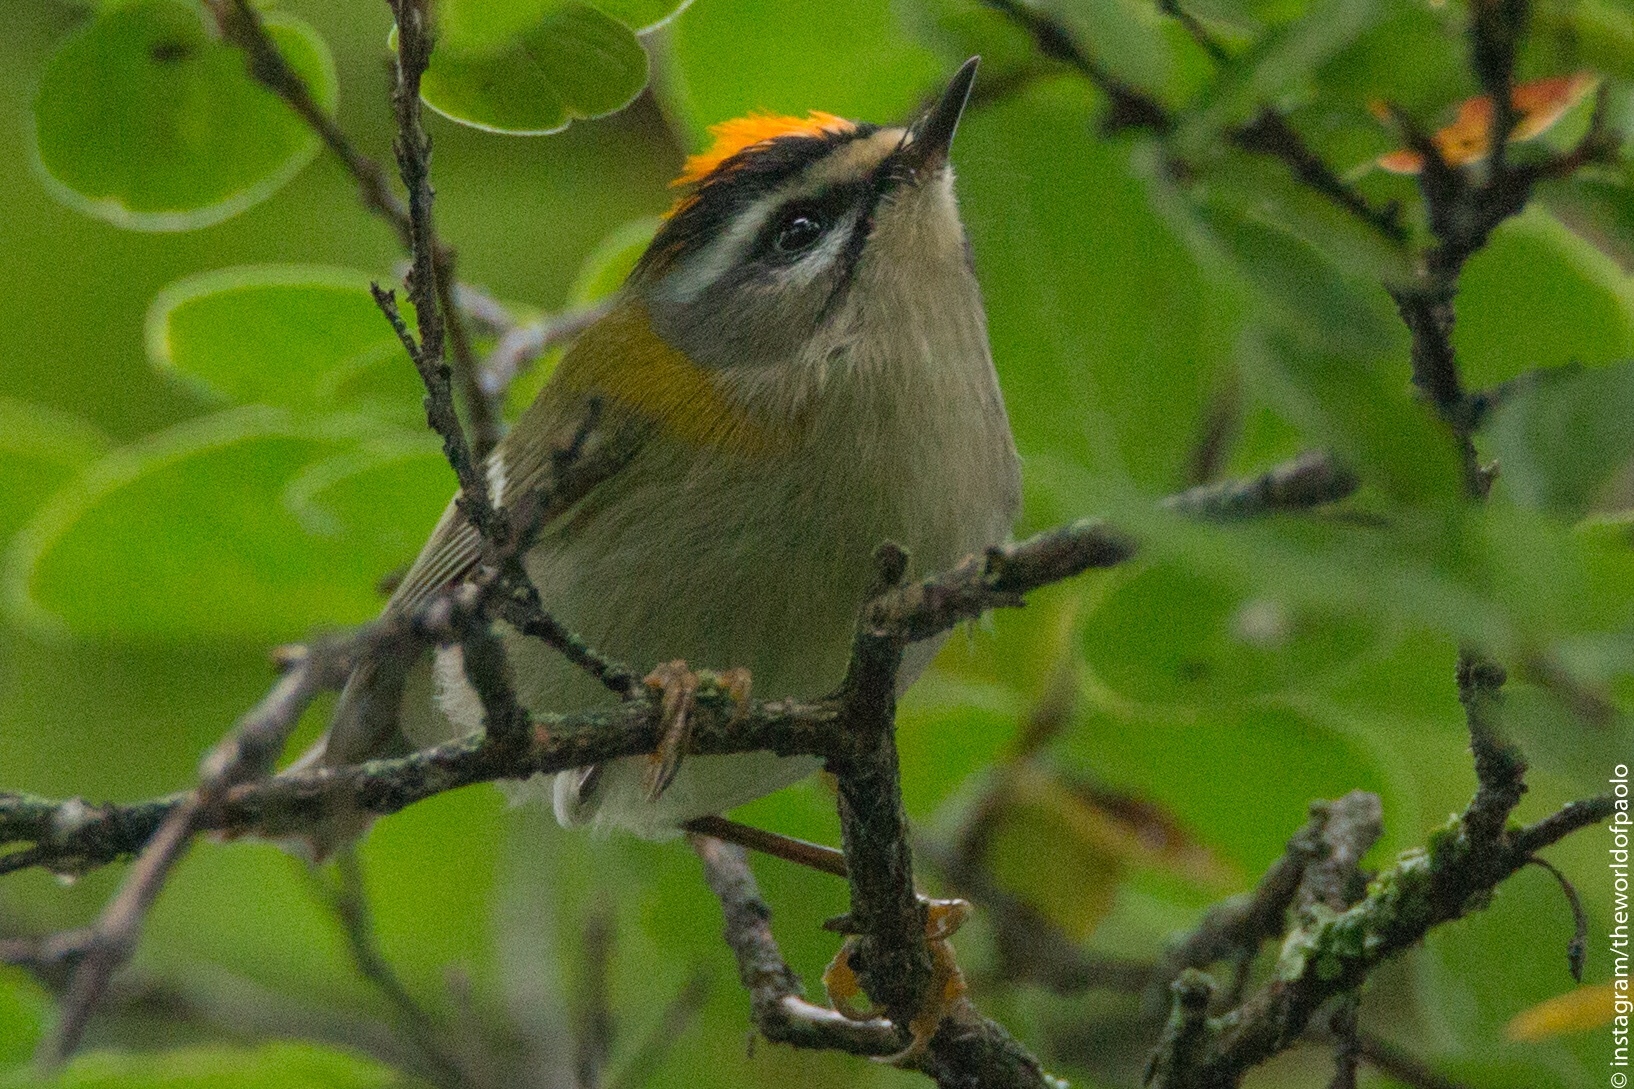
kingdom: Animalia
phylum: Chordata
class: Aves
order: Passeriformes
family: Regulidae
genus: Regulus
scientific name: Regulus ignicapilla
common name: Firecrest
